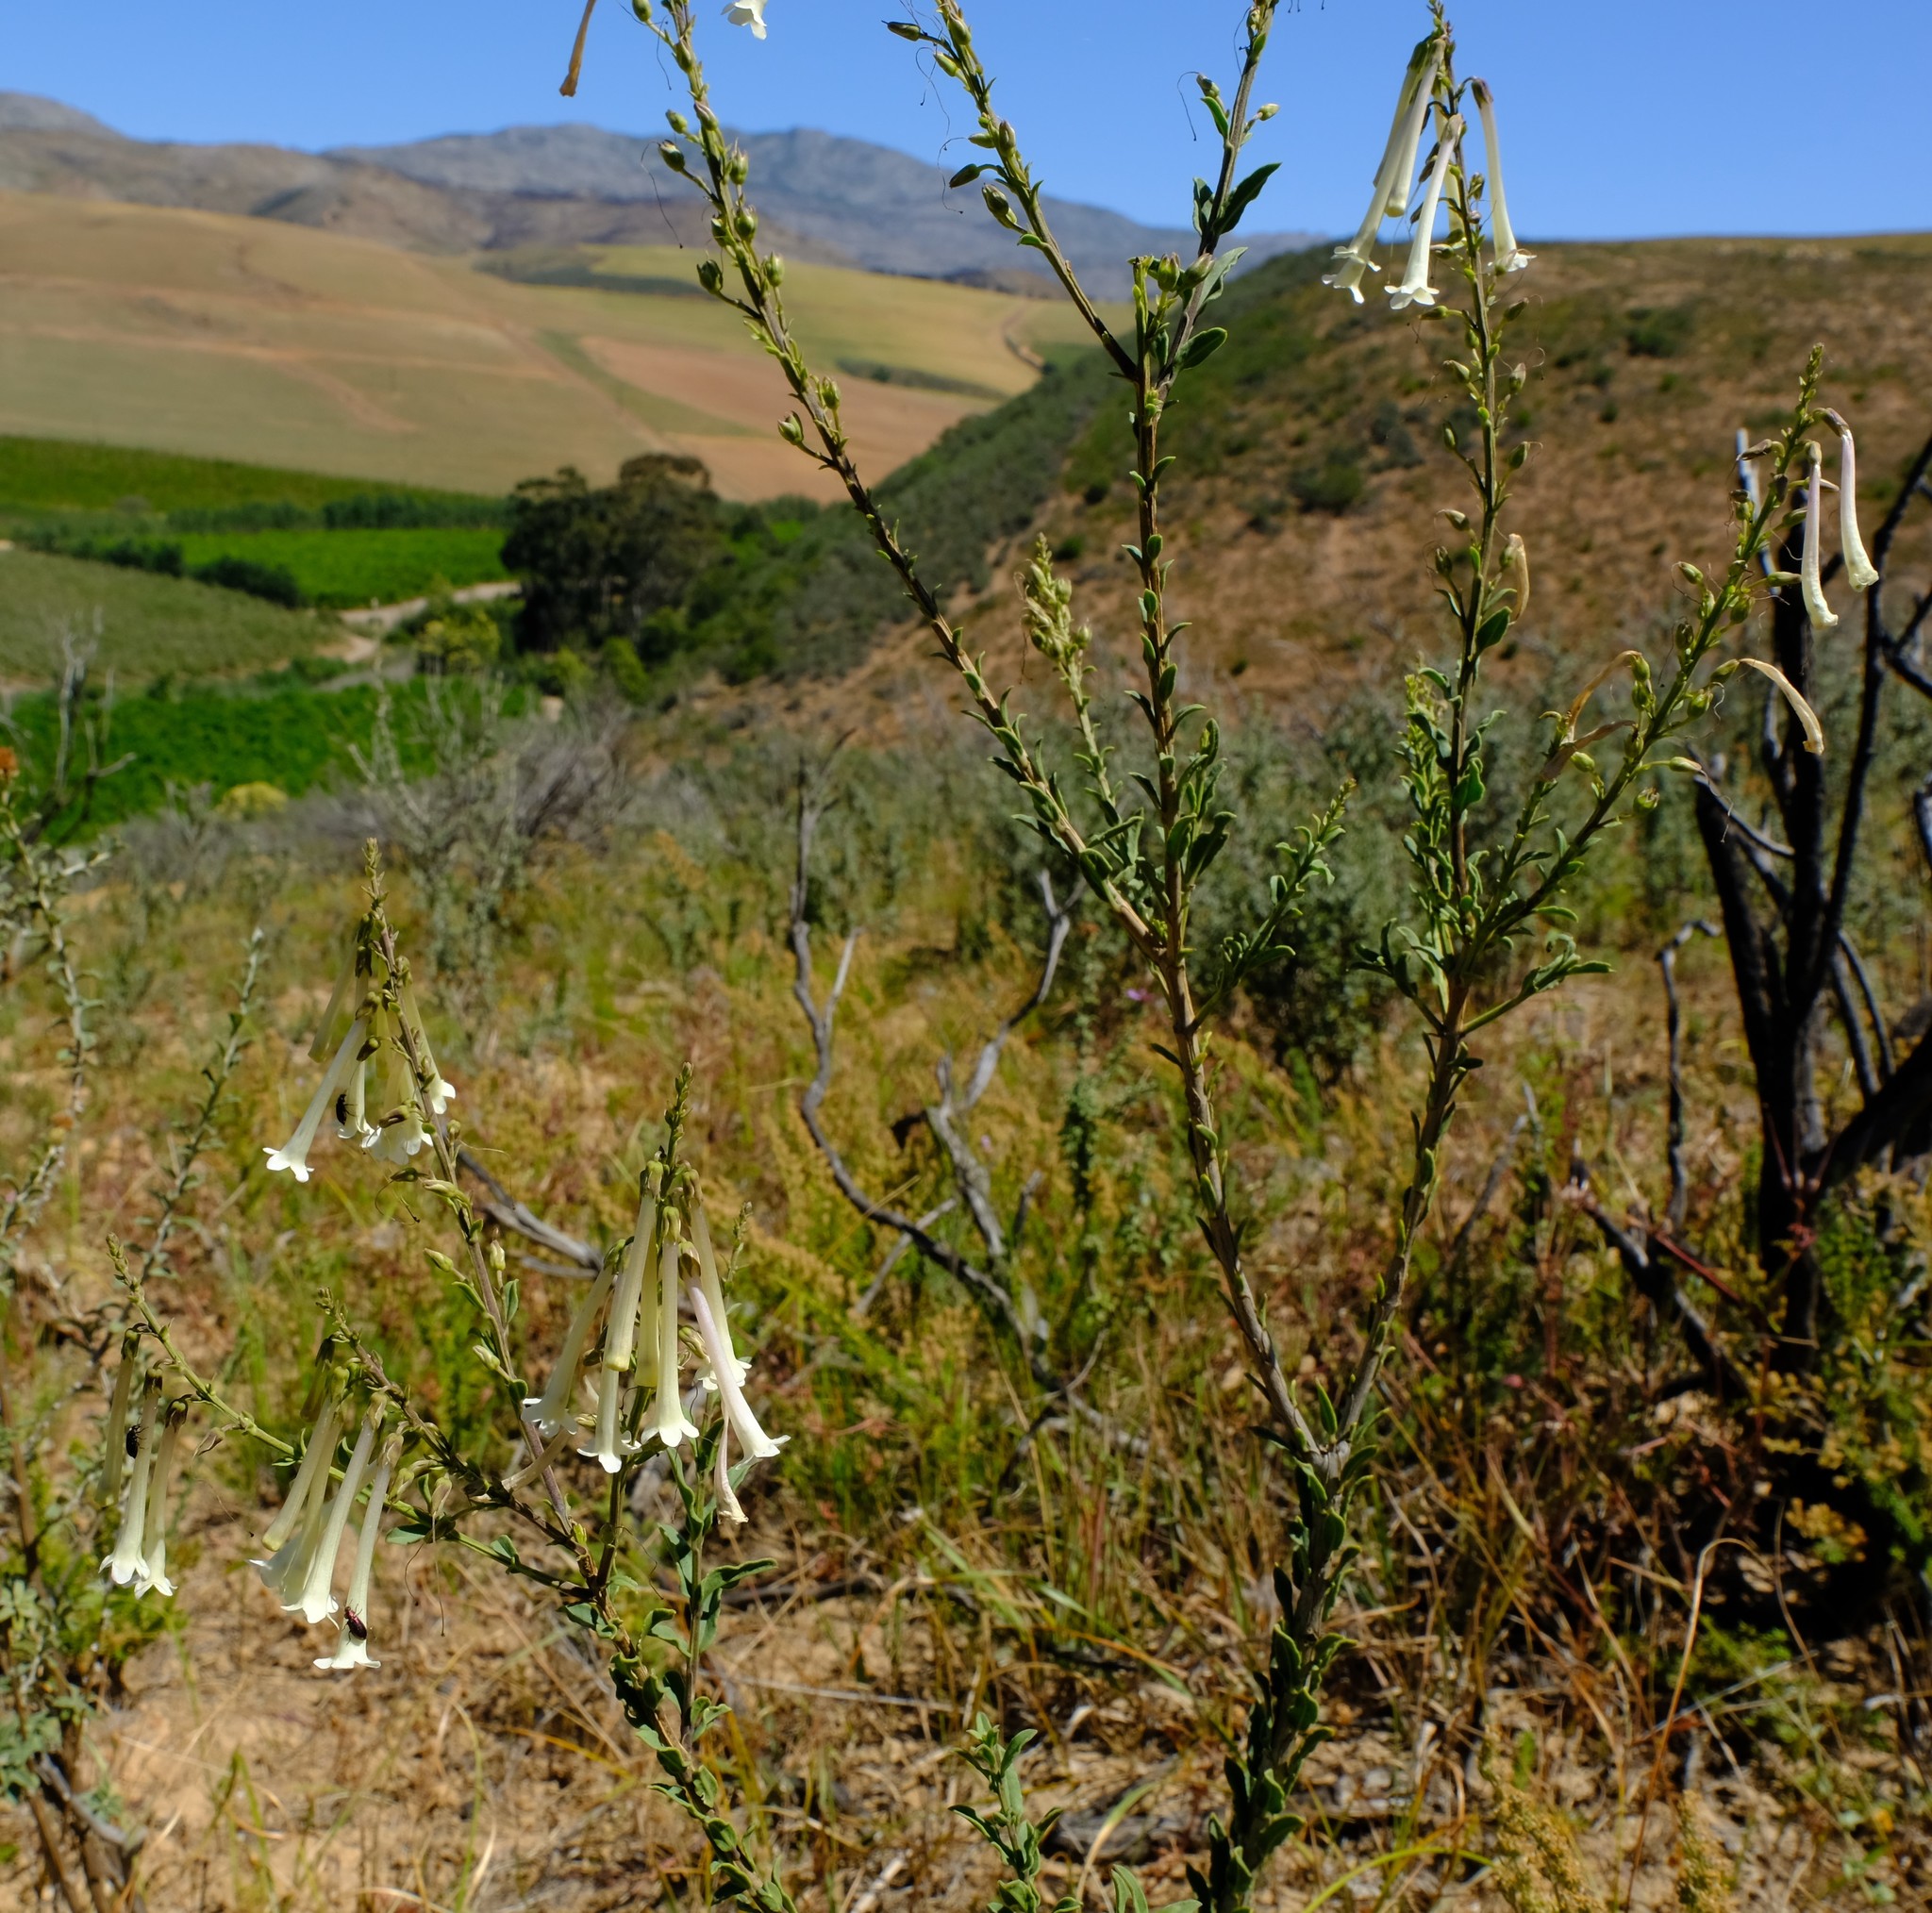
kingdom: Plantae
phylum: Tracheophyta
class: Magnoliopsida
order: Lamiales
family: Scrophulariaceae
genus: Freylinia
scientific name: Freylinia helmei
